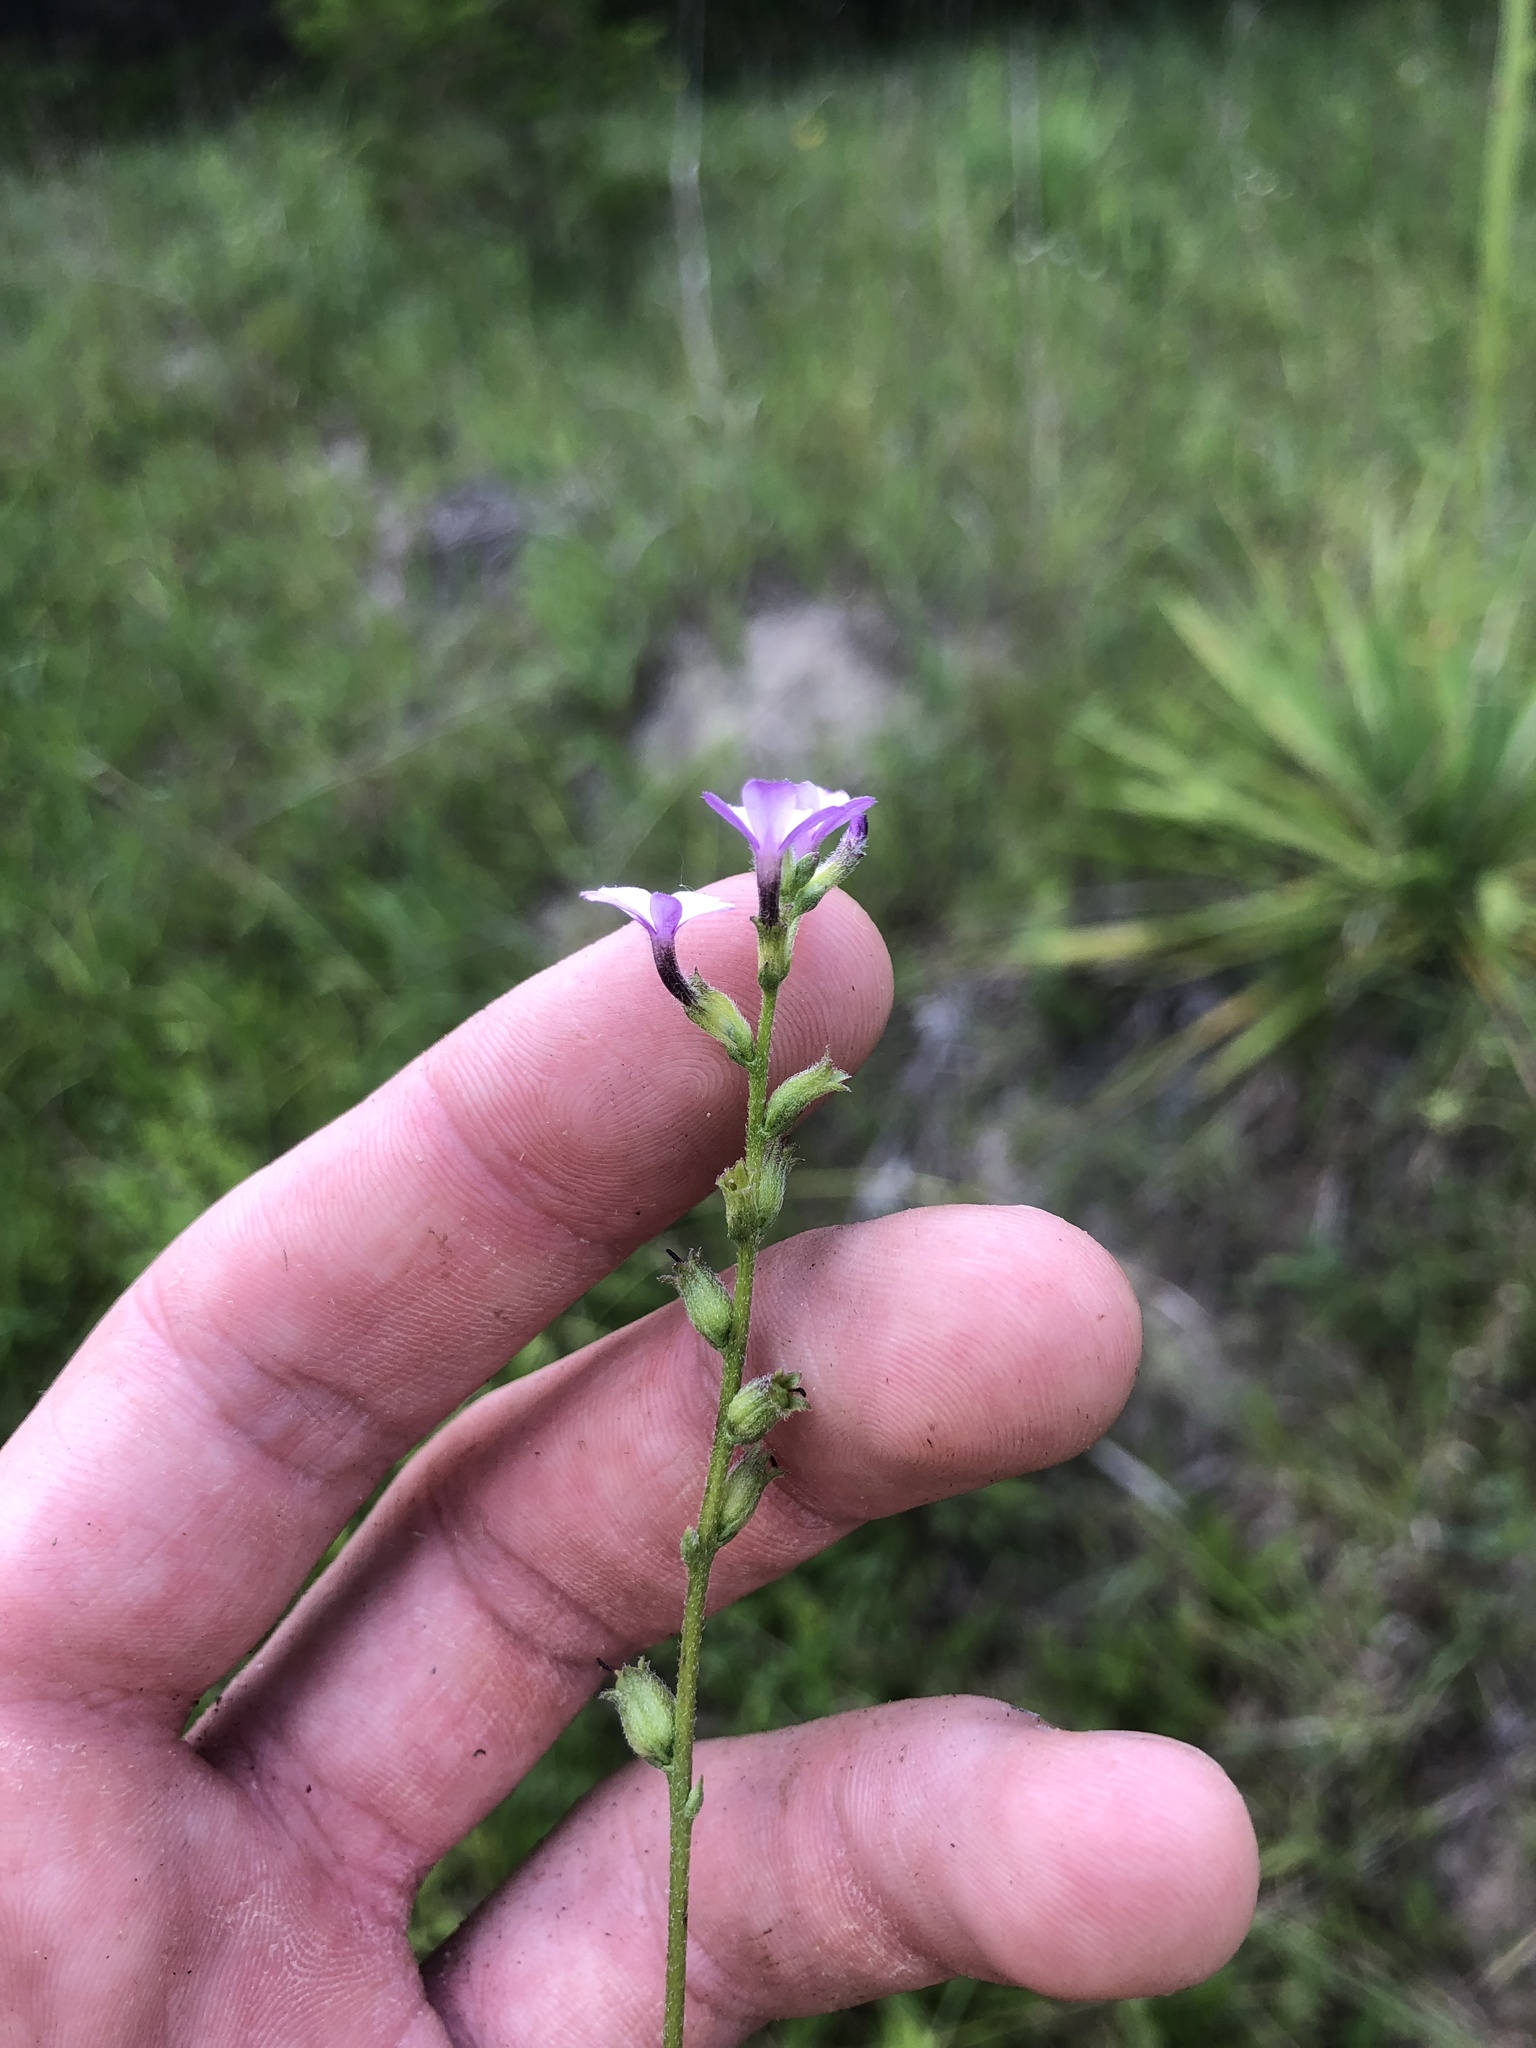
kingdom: Plantae
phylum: Tracheophyta
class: Magnoliopsida
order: Lamiales
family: Orobanchaceae
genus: Buchnera
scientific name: Buchnera floridana
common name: Florida bluehearts
